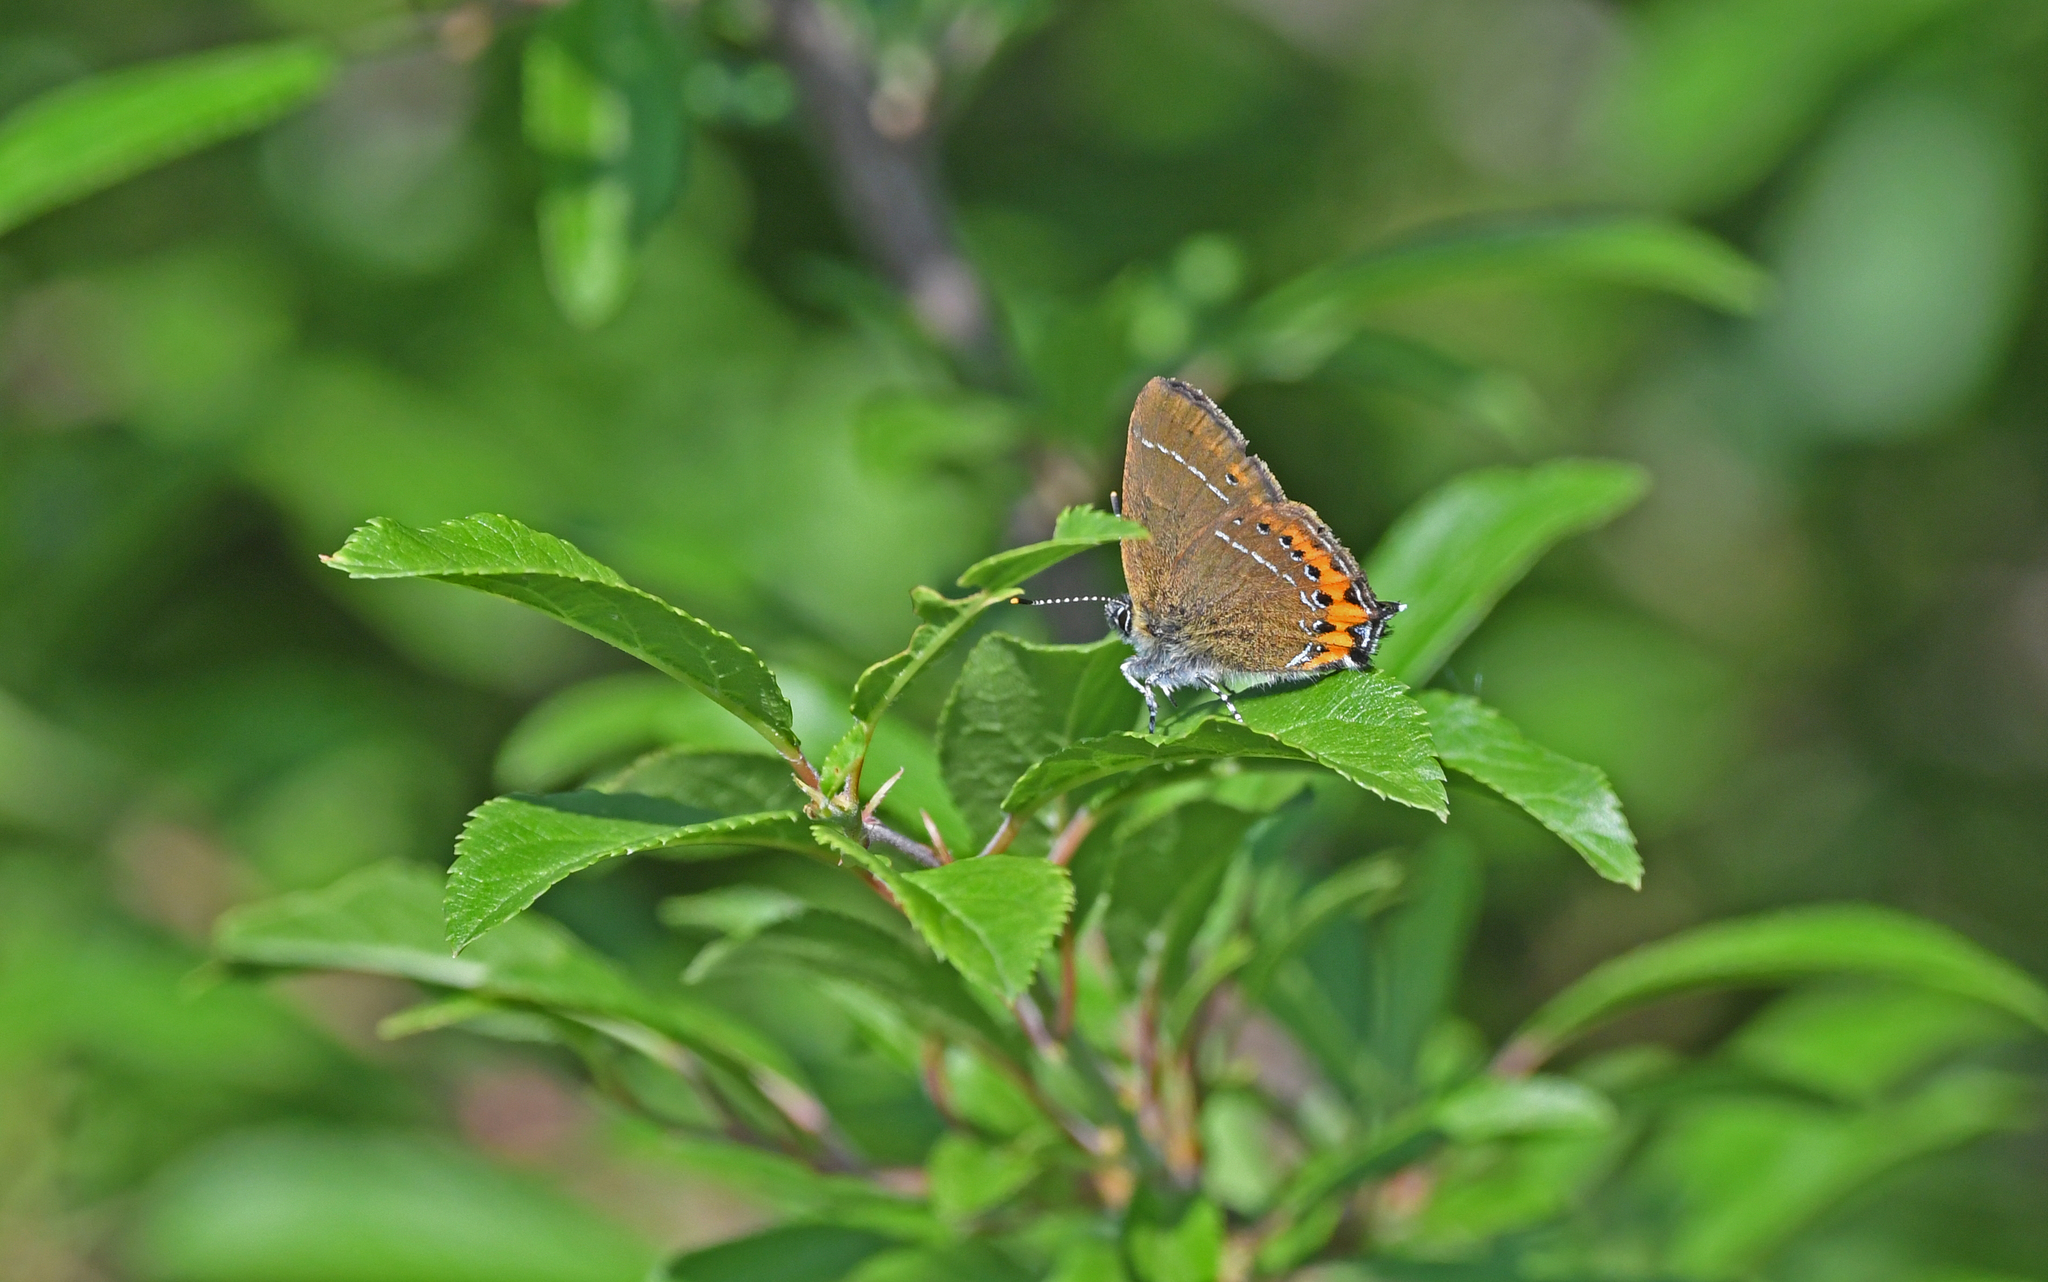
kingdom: Animalia
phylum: Arthropoda
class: Insecta
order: Lepidoptera
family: Lycaenidae
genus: Fixsenia
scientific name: Fixsenia pruni
